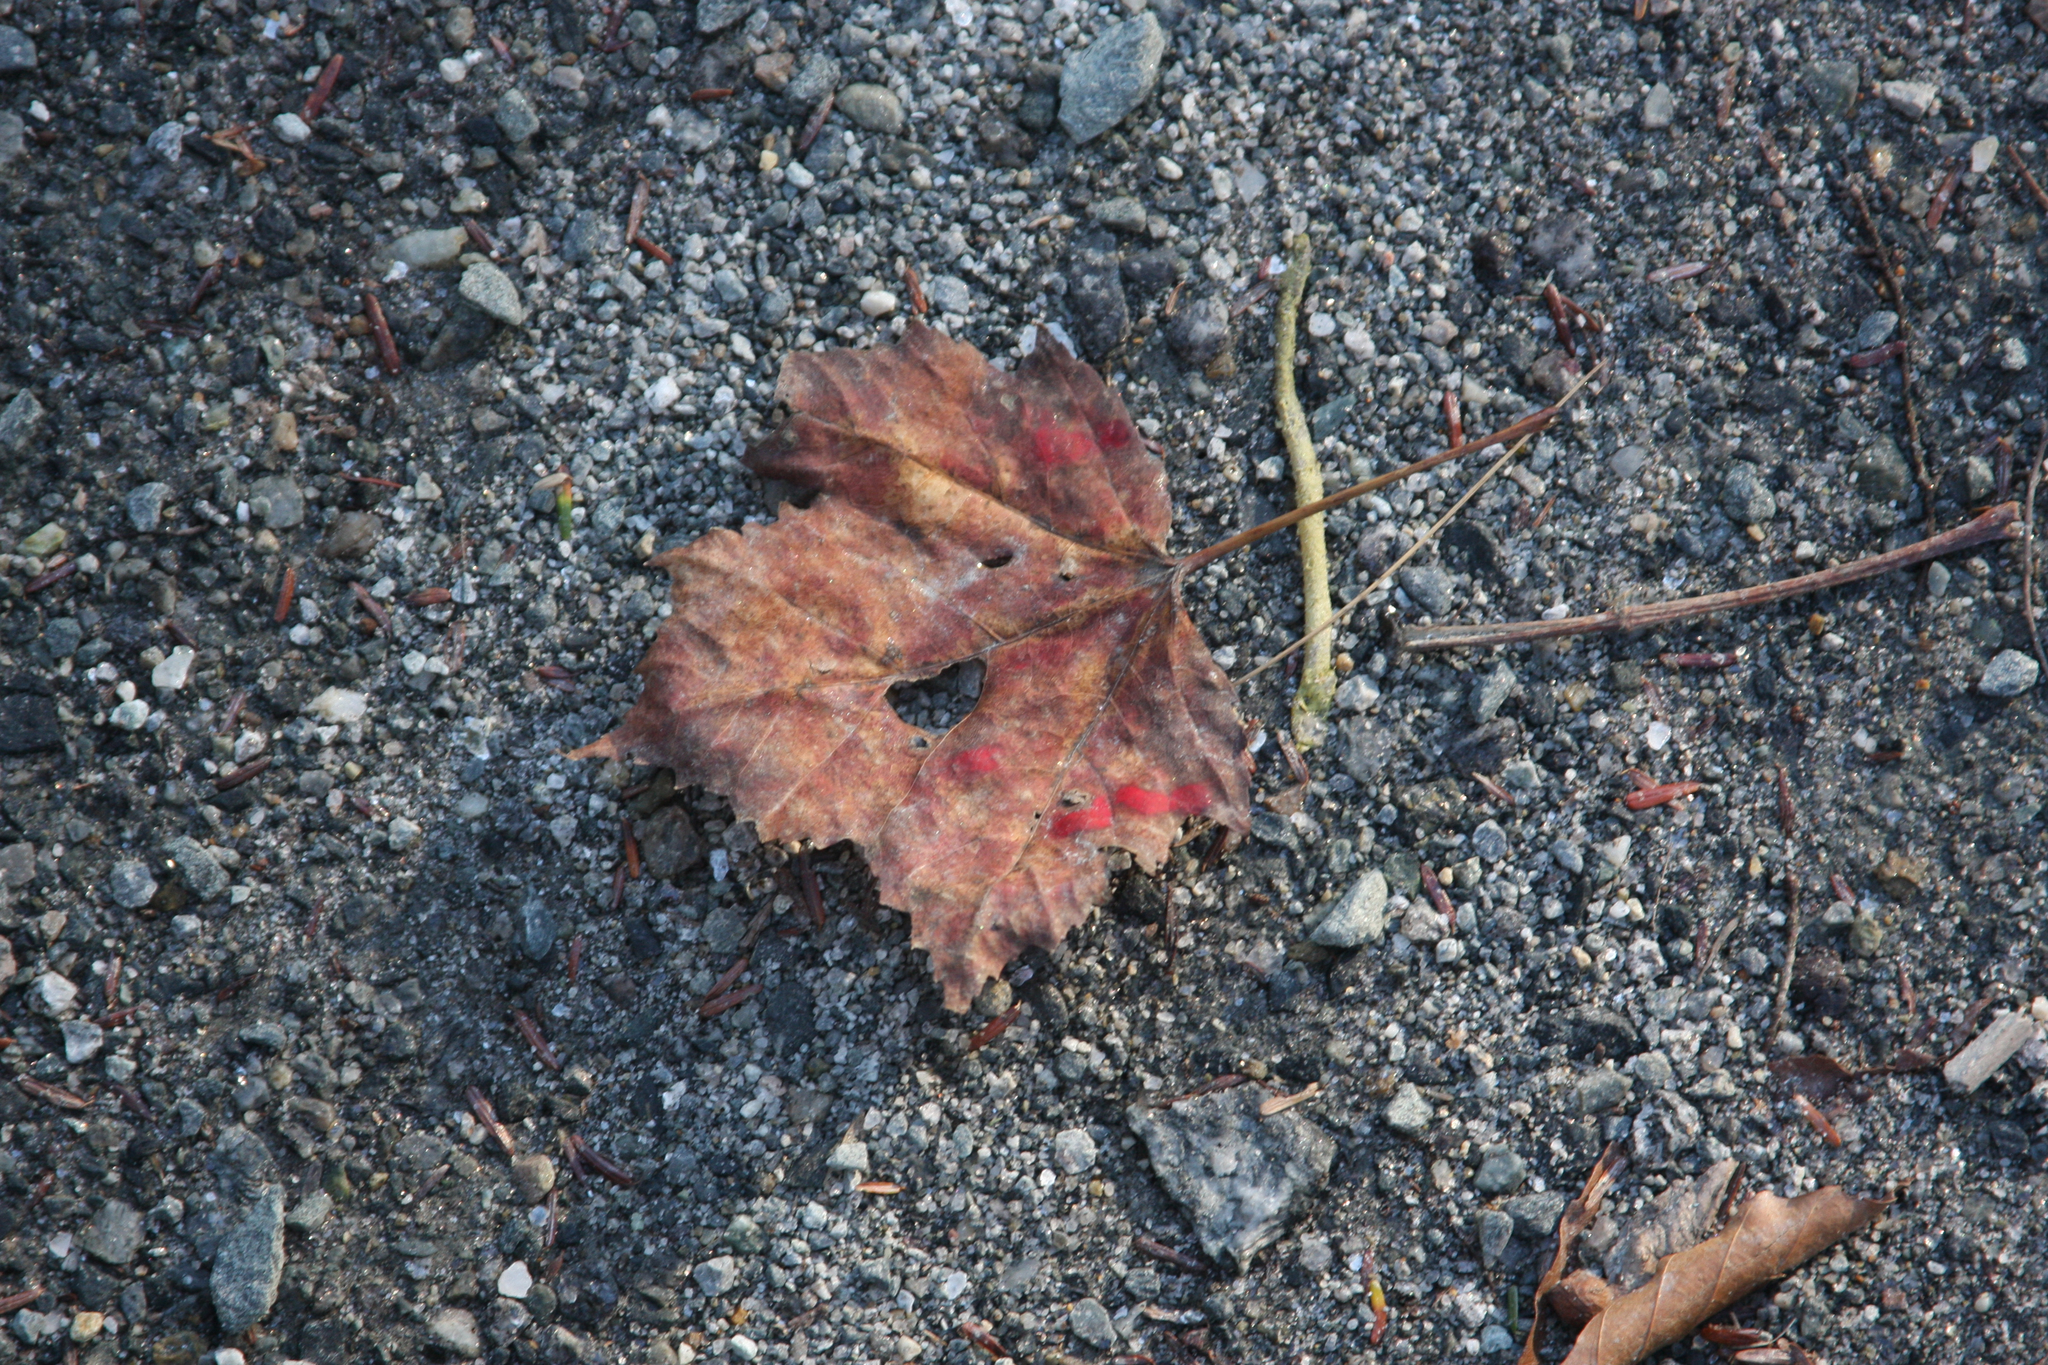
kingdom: Plantae
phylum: Tracheophyta
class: Magnoliopsida
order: Sapindales
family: Sapindaceae
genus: Acer
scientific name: Acer rubrum
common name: Red maple
